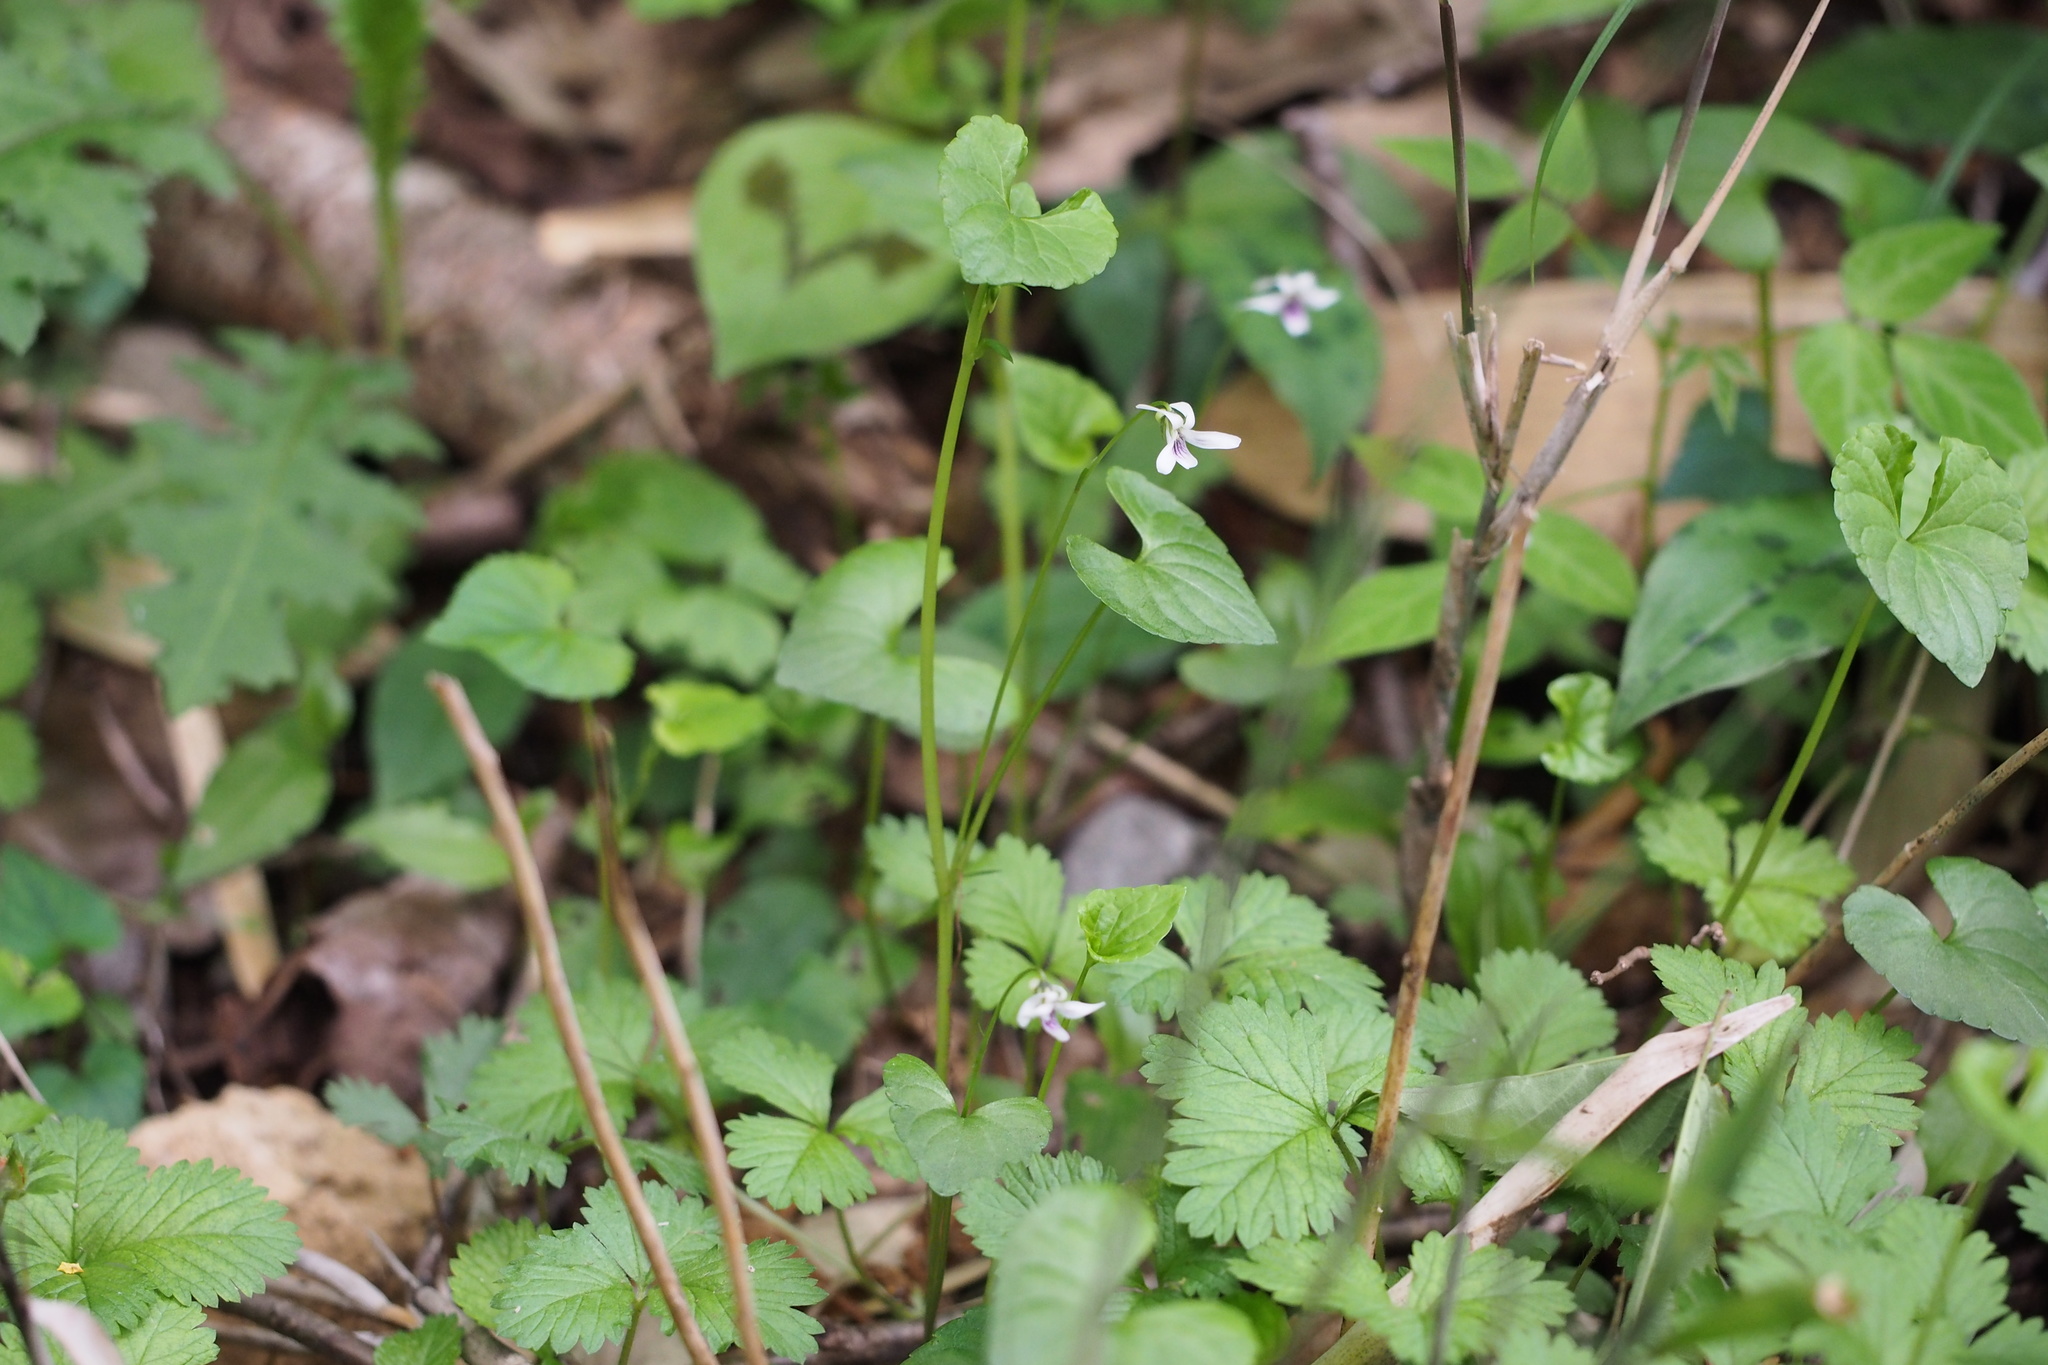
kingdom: Plantae
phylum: Tracheophyta
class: Magnoliopsida
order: Malpighiales
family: Violaceae
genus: Viola
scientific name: Viola
